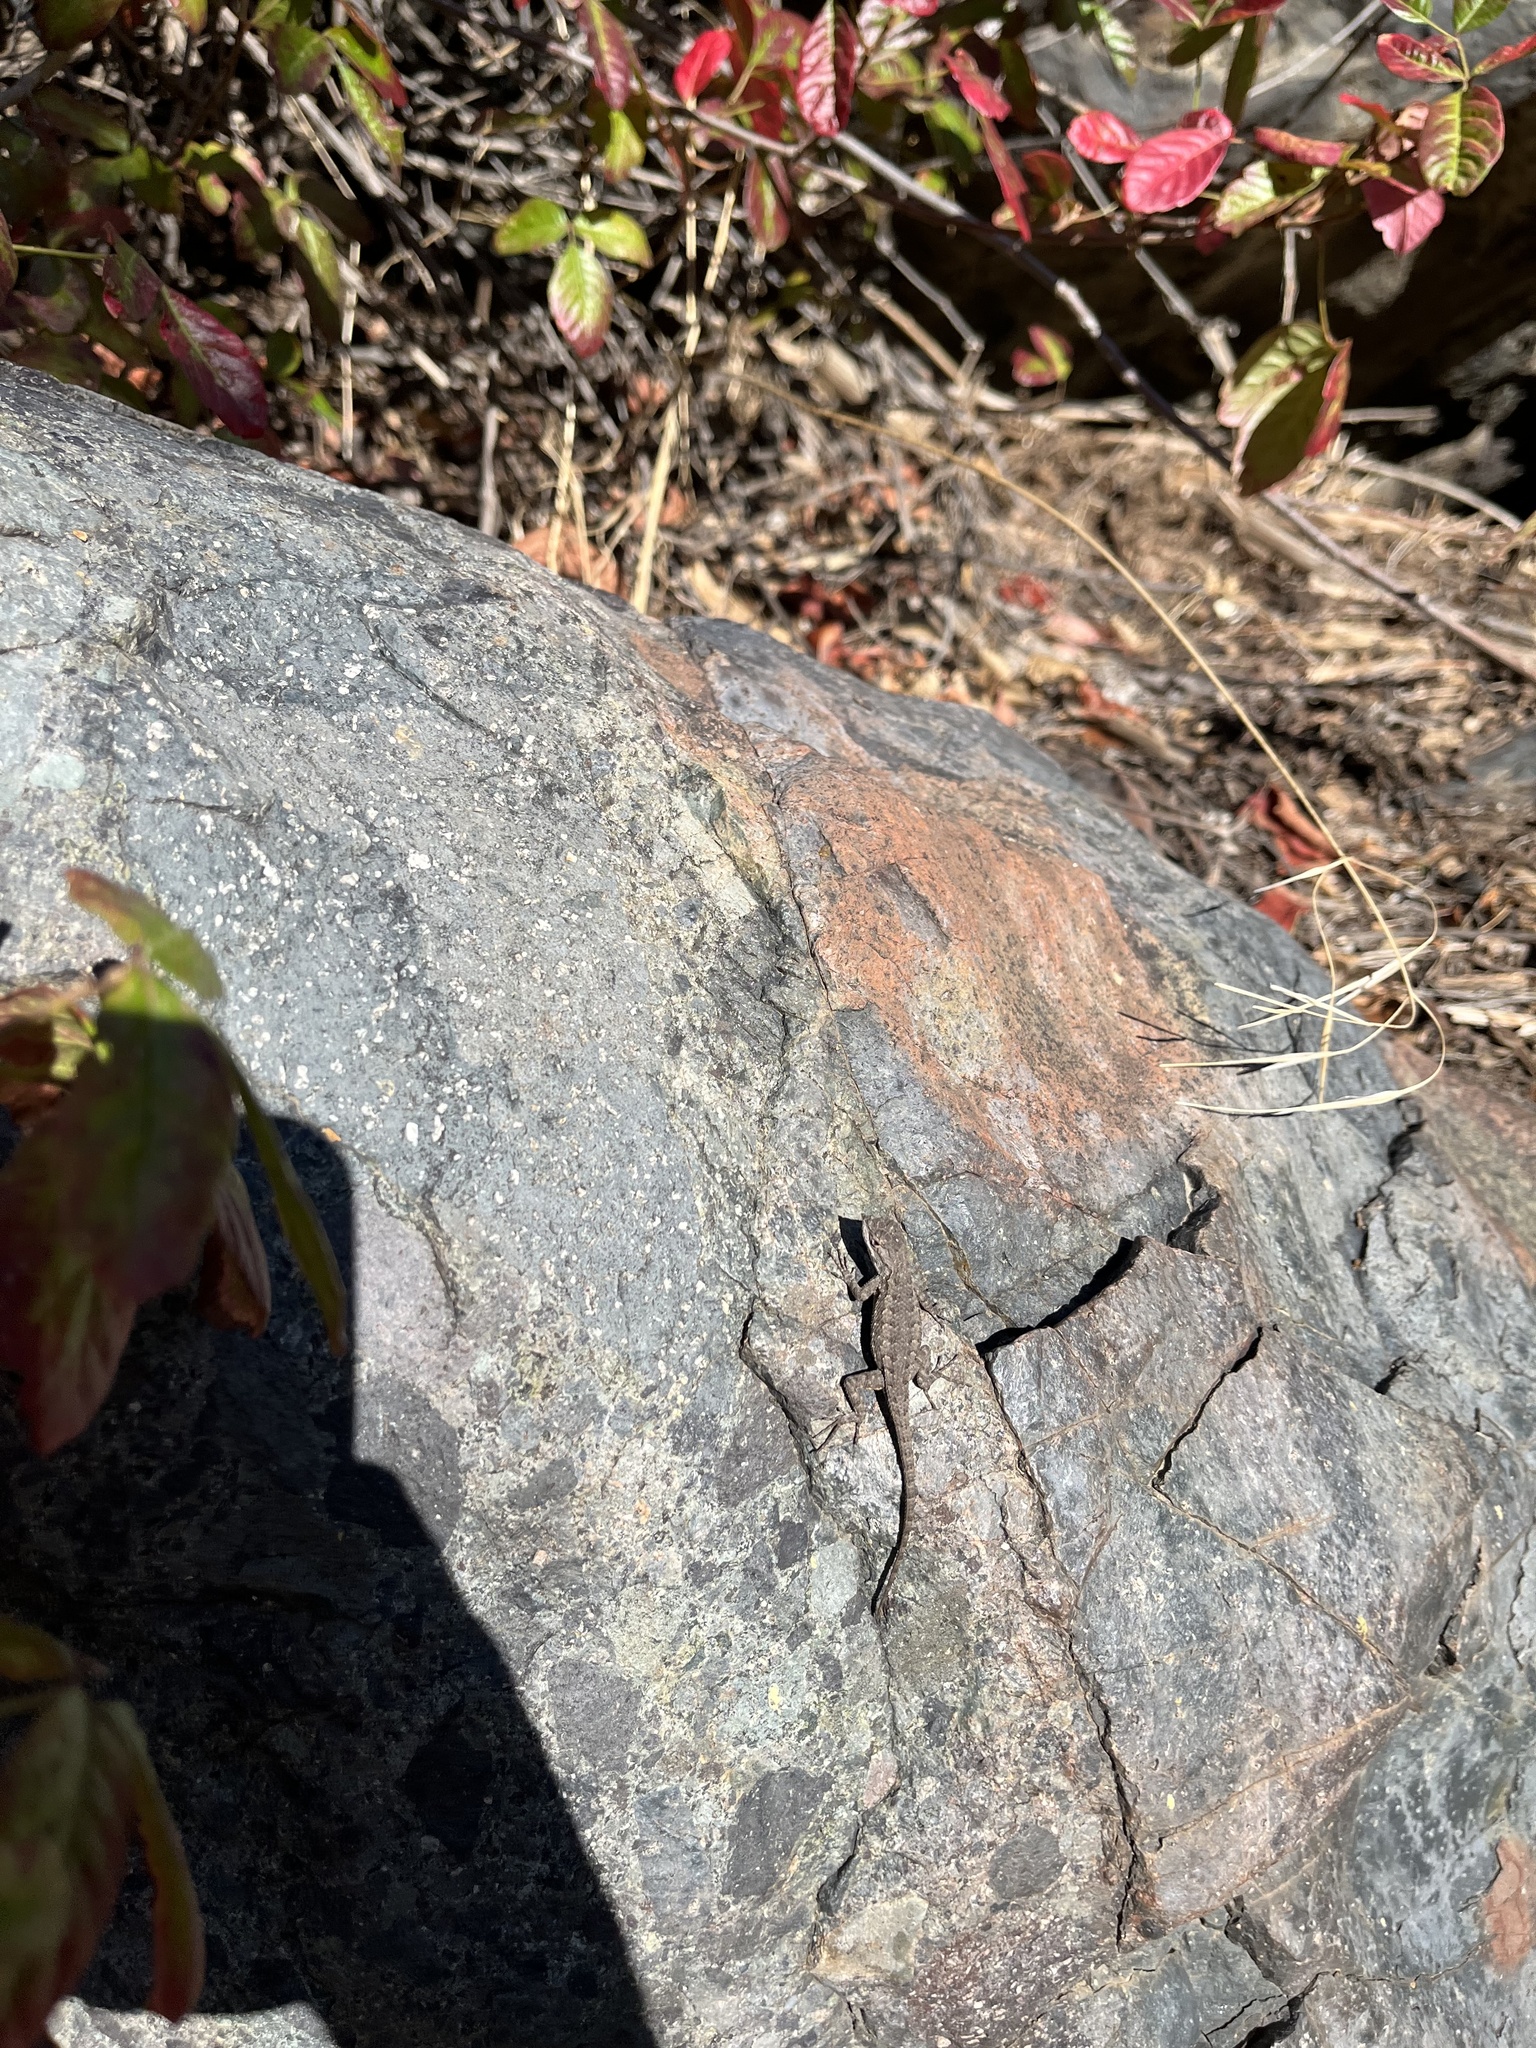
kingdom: Animalia
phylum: Chordata
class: Squamata
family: Phrynosomatidae
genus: Sceloporus
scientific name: Sceloporus occidentalis
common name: Western fence lizard
